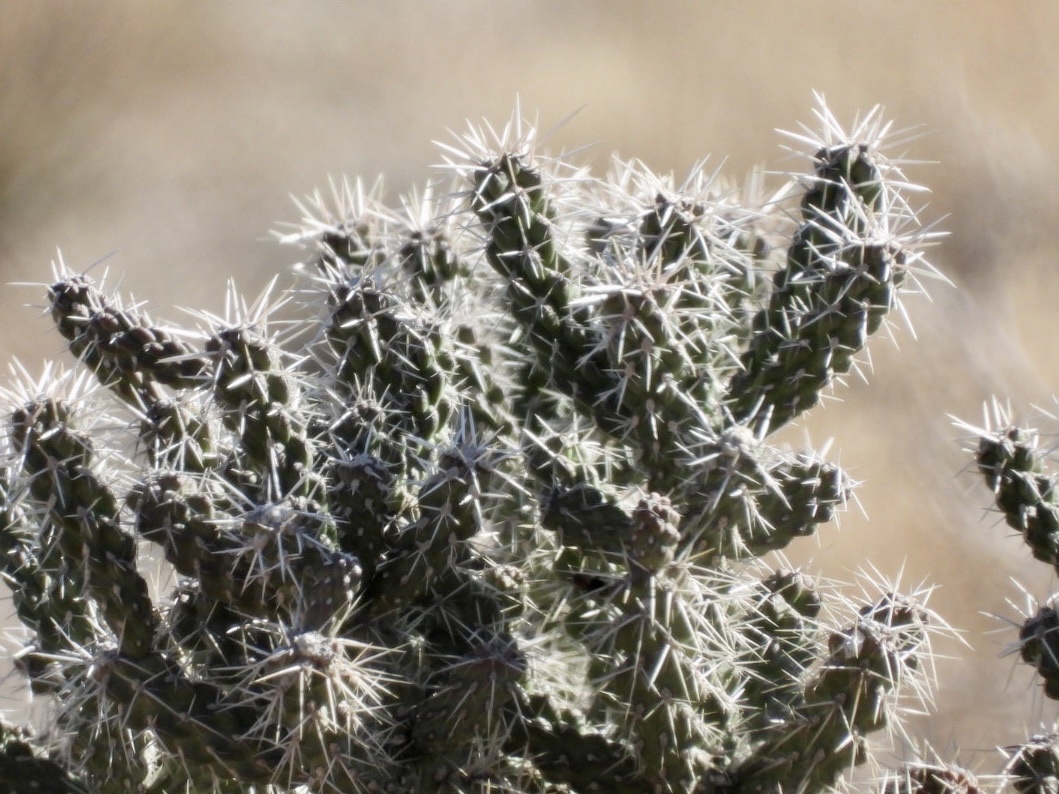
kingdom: Plantae
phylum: Tracheophyta
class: Magnoliopsida
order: Caryophyllales
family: Cactaceae
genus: Cylindropuntia
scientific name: Cylindropuntia whipplei
